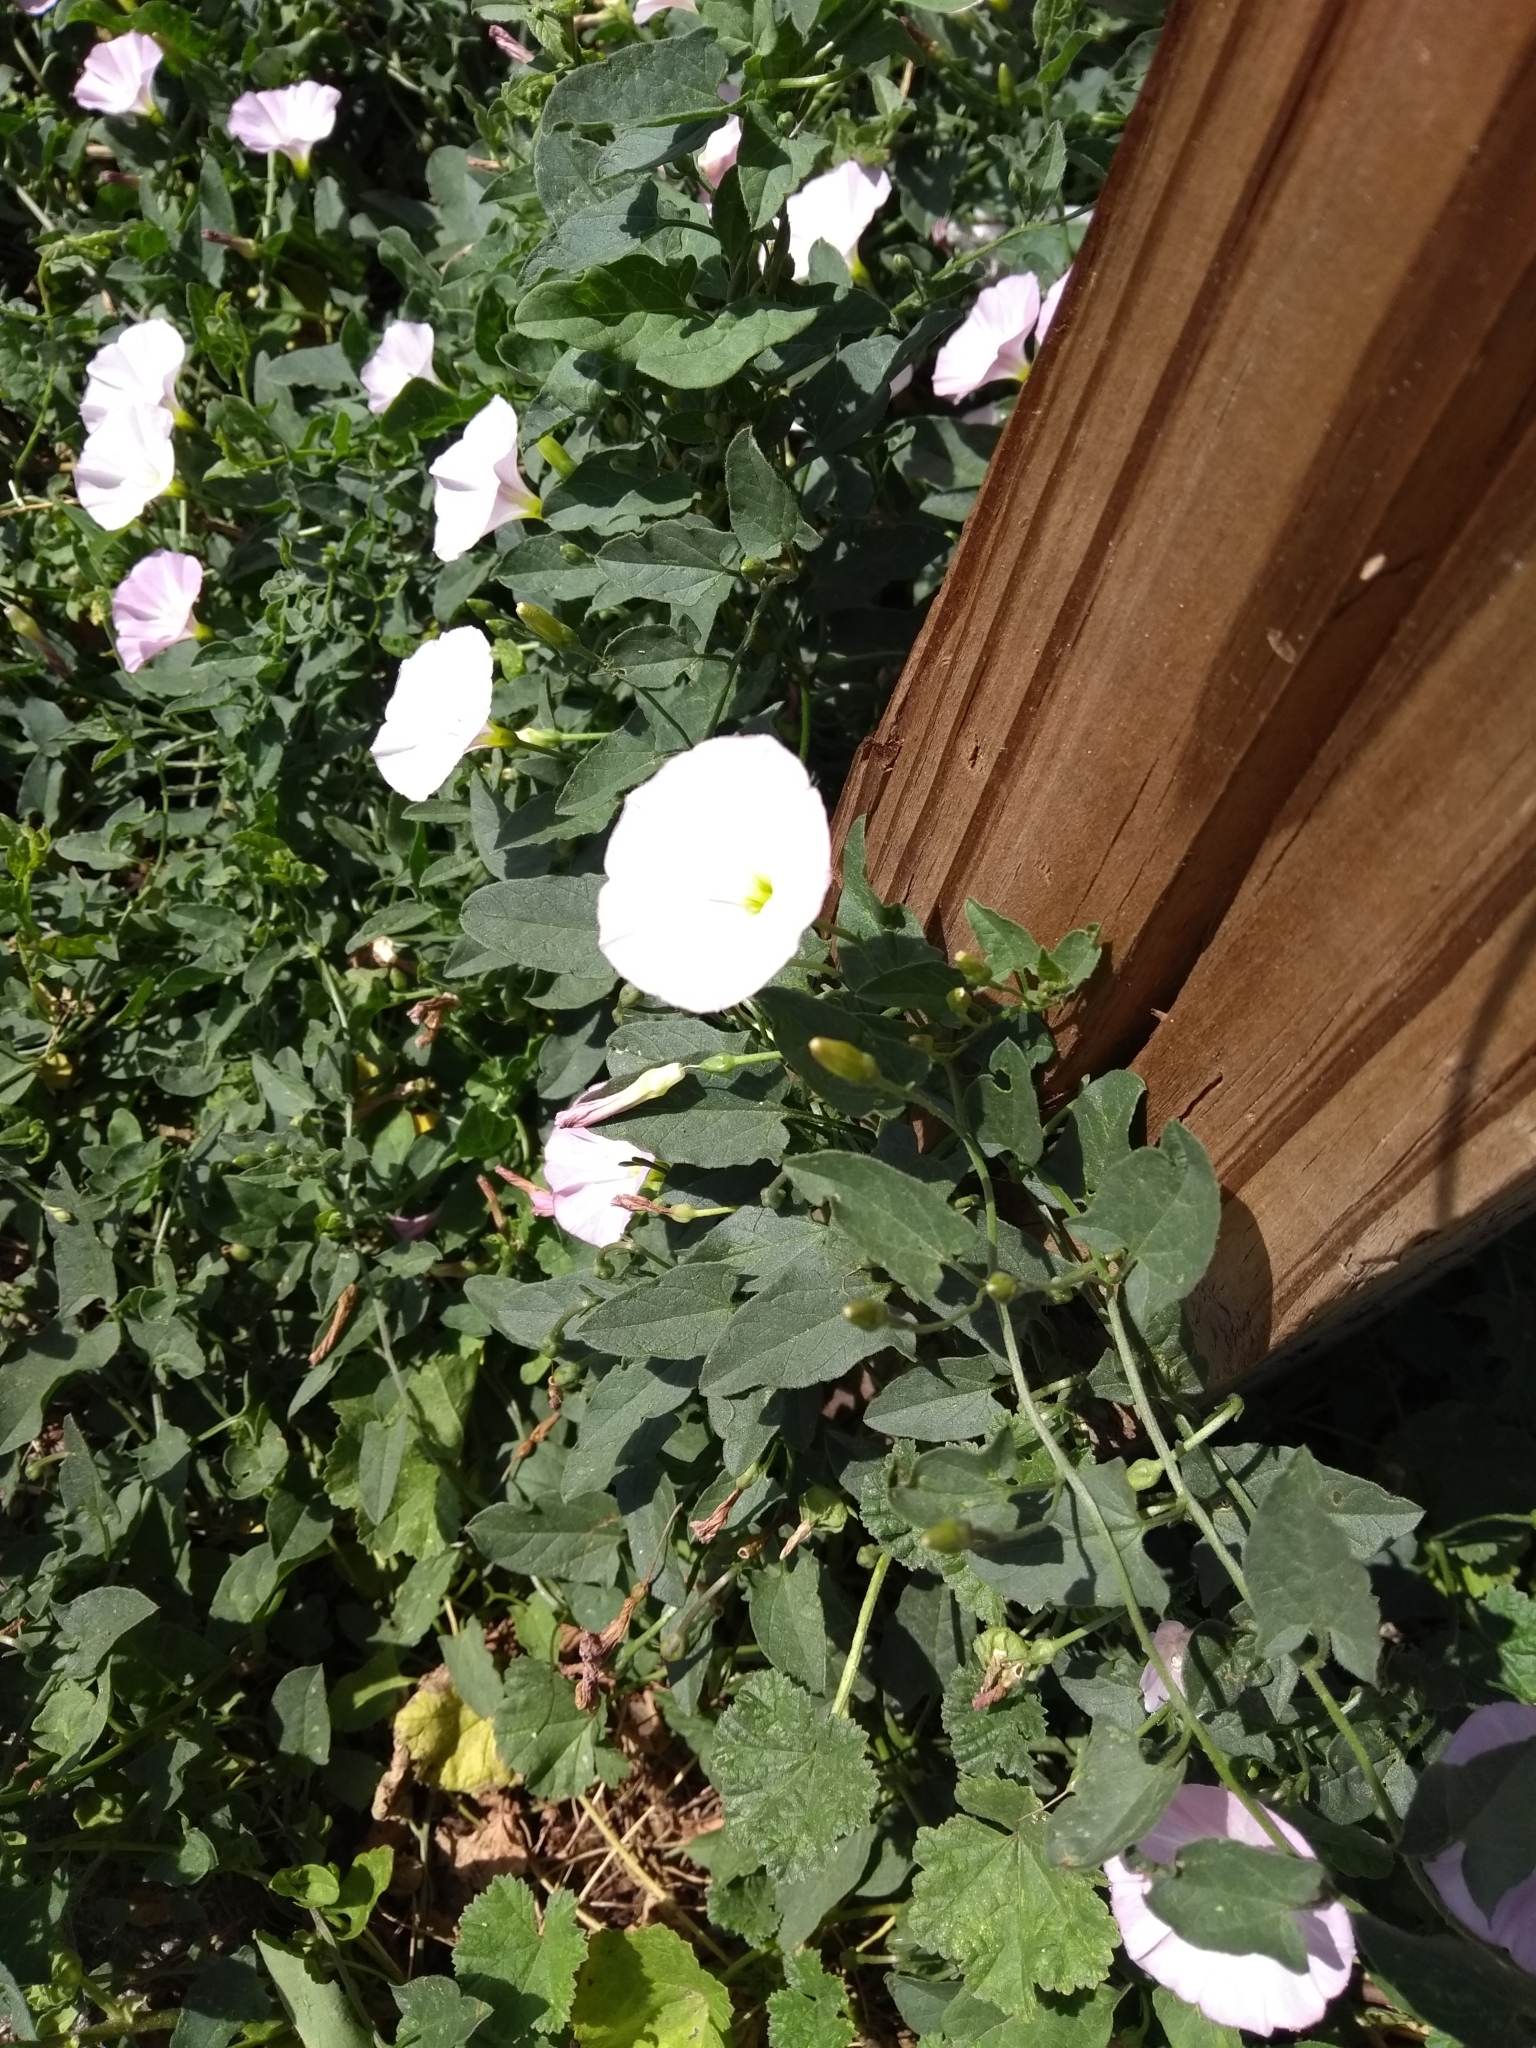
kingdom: Plantae
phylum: Tracheophyta
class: Magnoliopsida
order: Solanales
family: Convolvulaceae
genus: Convolvulus
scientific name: Convolvulus arvensis
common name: Field bindweed
